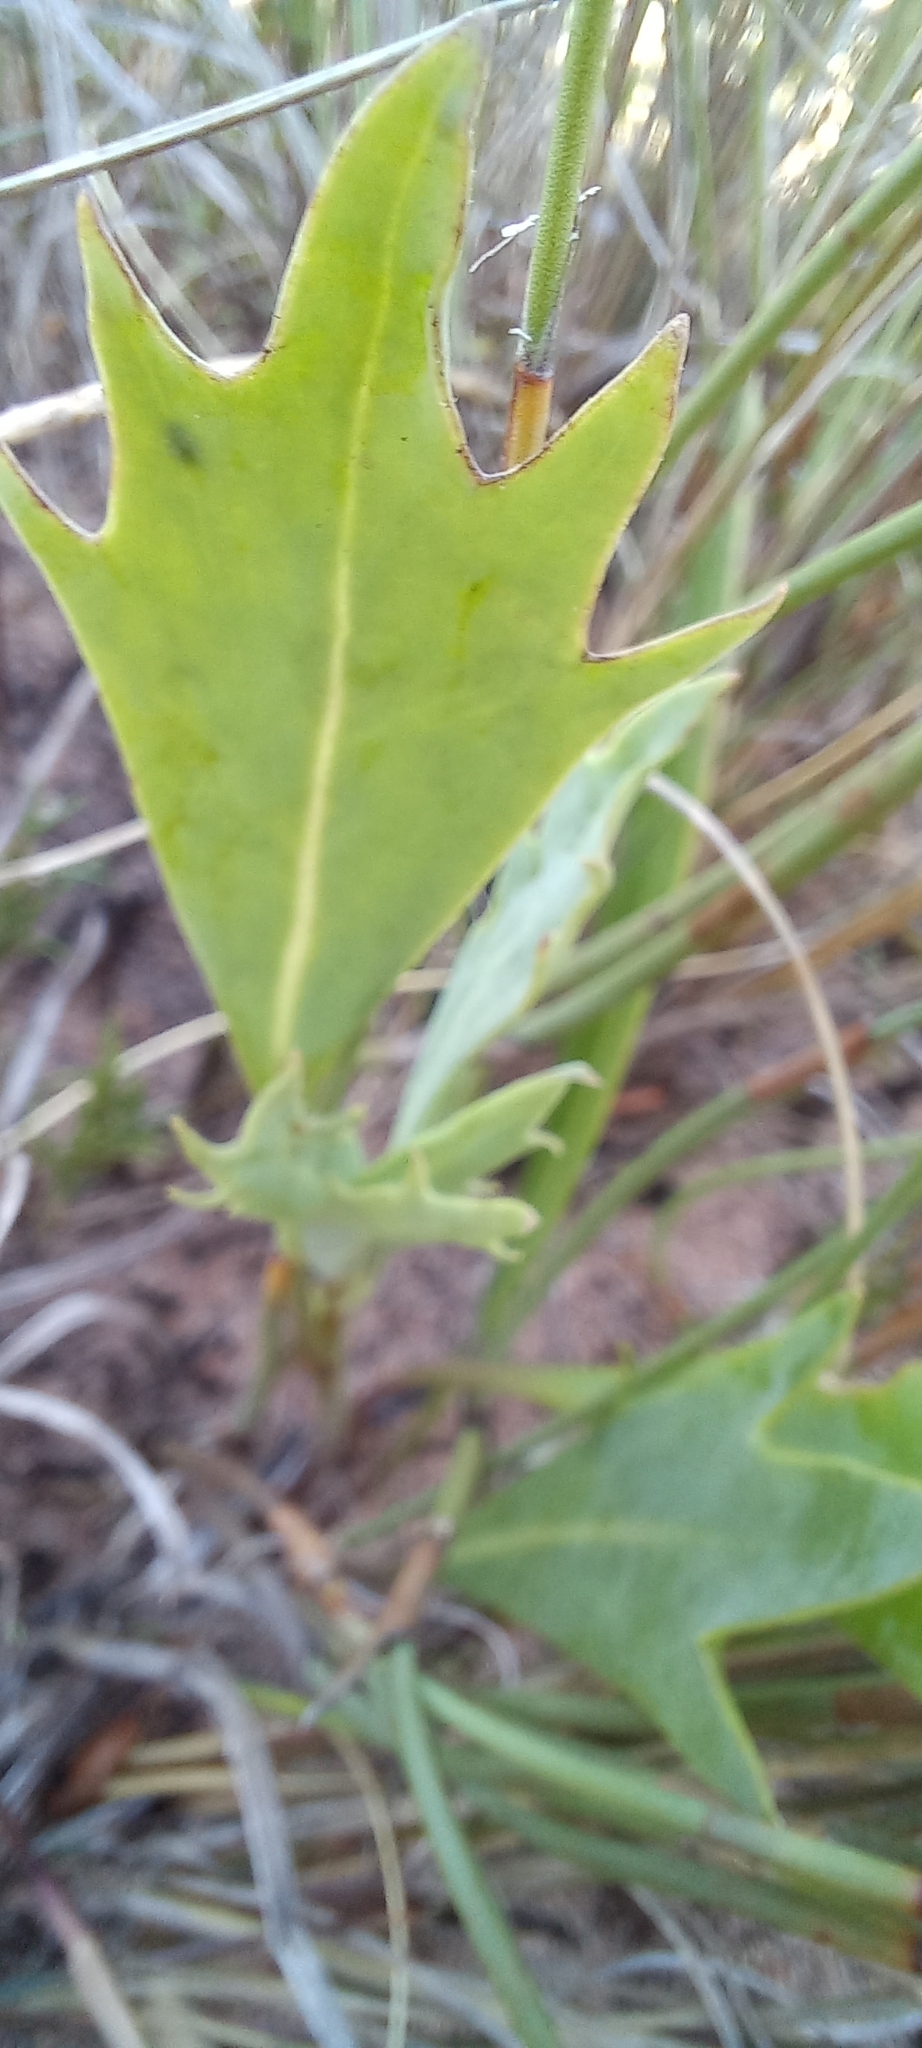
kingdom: Plantae
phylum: Tracheophyta
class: Magnoliopsida
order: Asterales
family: Asteraceae
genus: Othonna
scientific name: Othonna digitata
